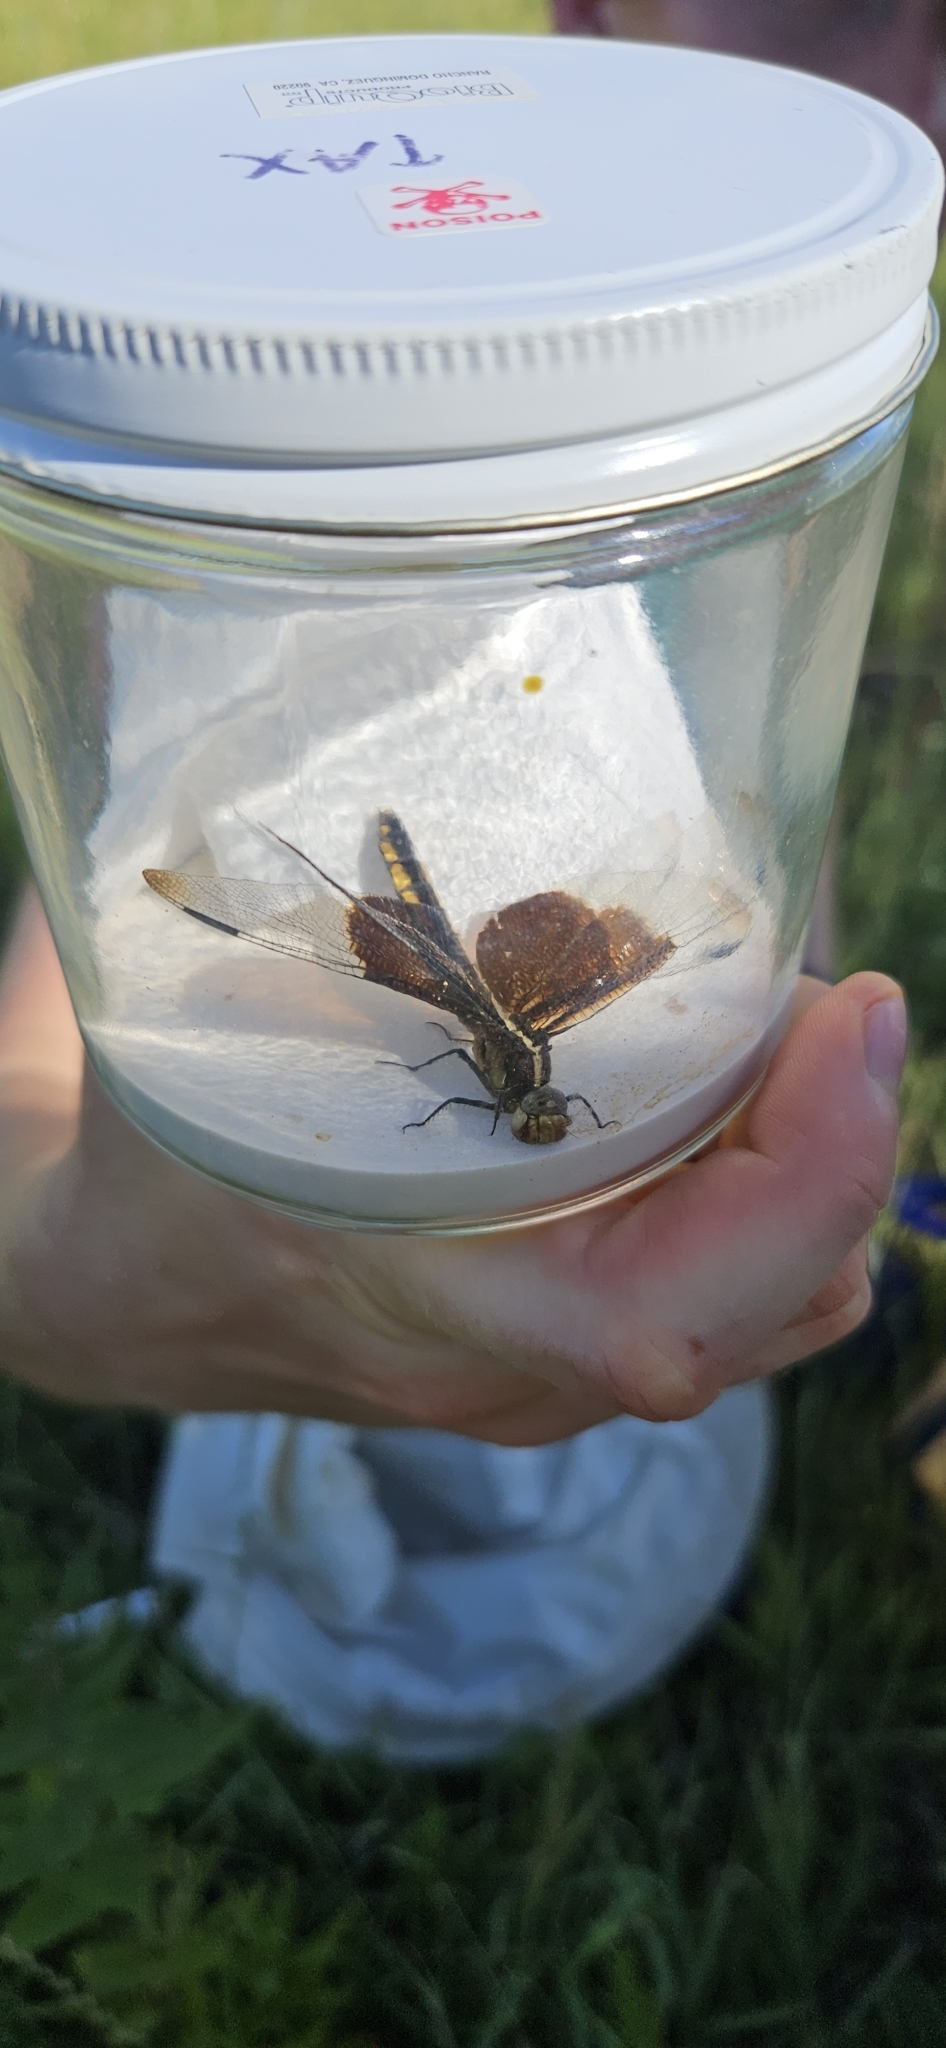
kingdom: Animalia
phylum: Arthropoda
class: Insecta
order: Odonata
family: Libellulidae
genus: Libellula
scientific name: Libellula luctuosa
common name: Widow skimmer
